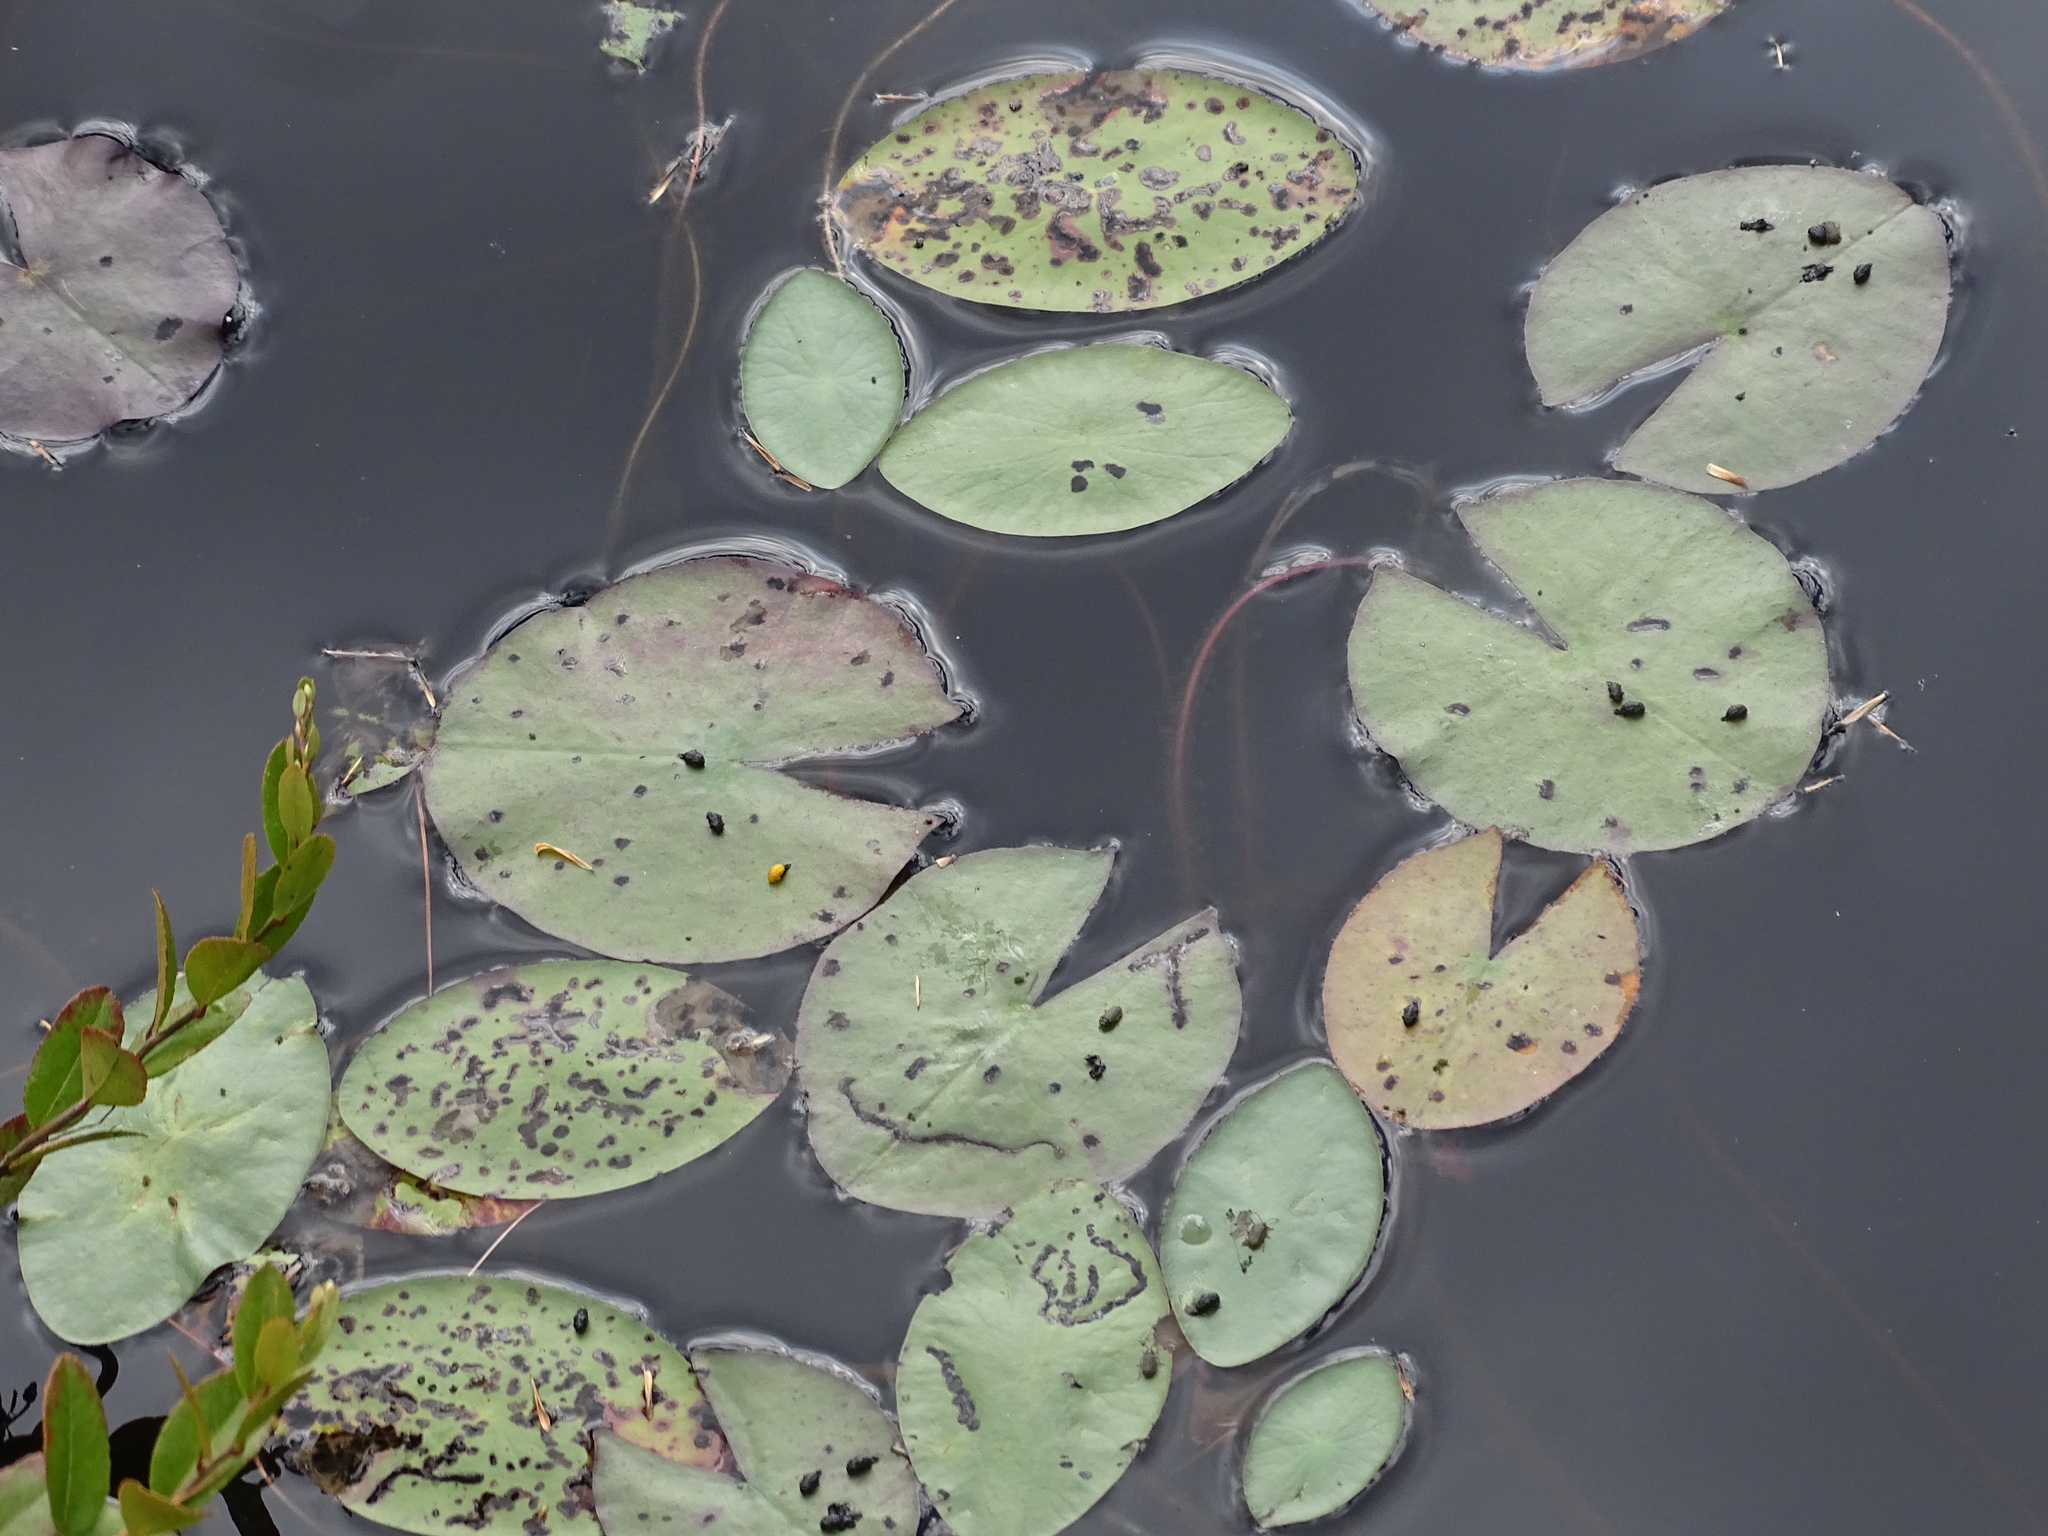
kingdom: Plantae
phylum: Tracheophyta
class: Magnoliopsida
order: Nymphaeales
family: Nymphaeaceae
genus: Nymphaea
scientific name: Nymphaea odorata
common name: Fragrant water-lily
